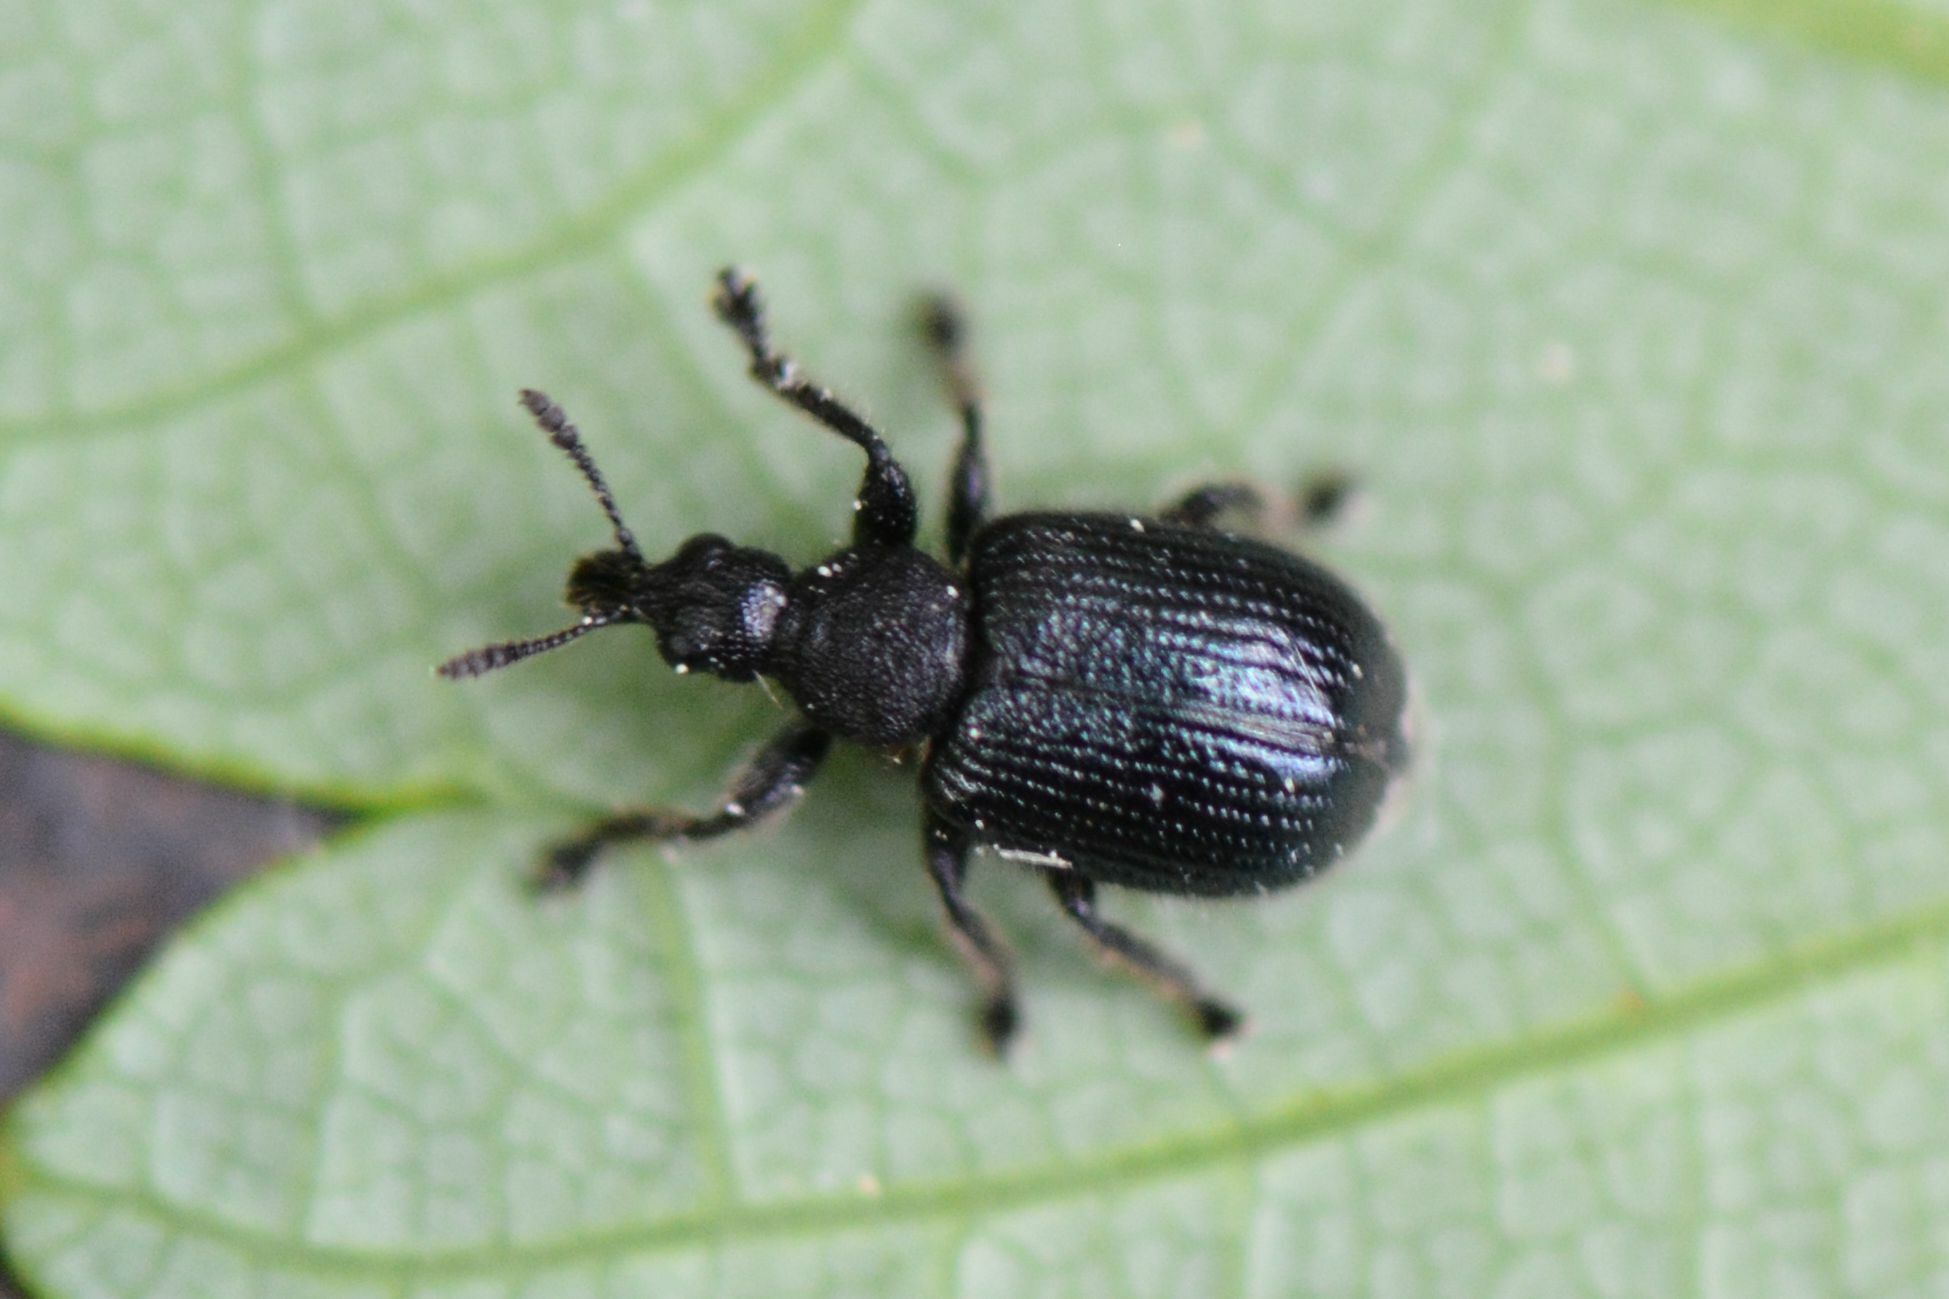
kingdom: Animalia
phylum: Arthropoda
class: Insecta
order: Coleoptera
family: Attelabidae
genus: Chonostropheus
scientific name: Chonostropheus tristis
